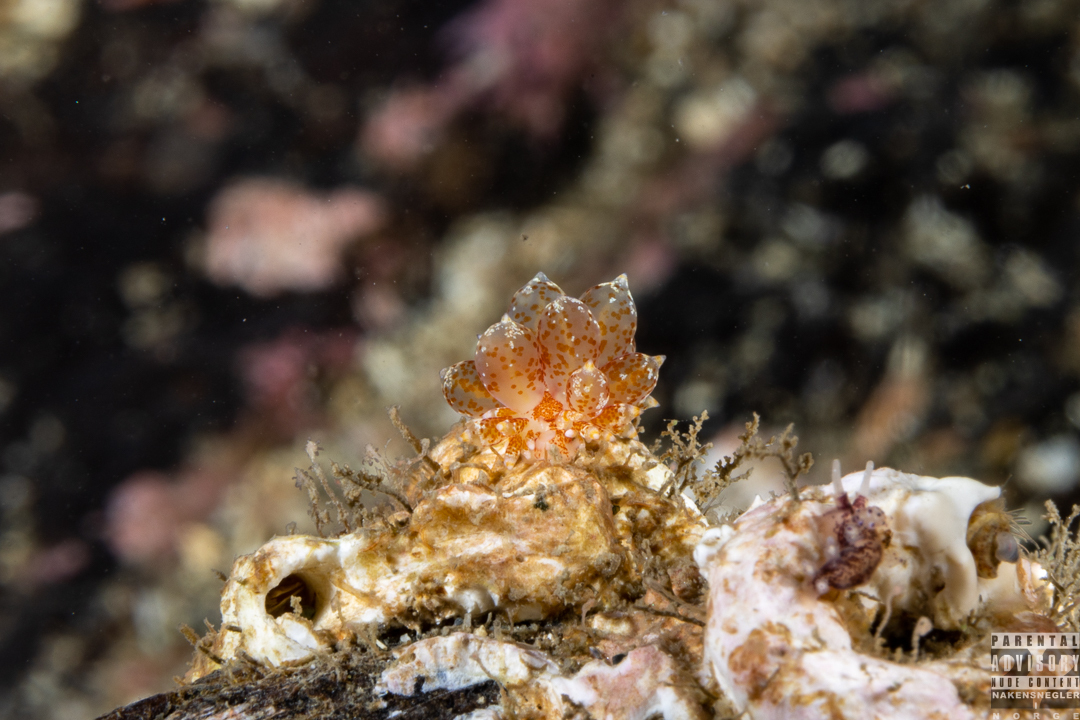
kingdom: Animalia
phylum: Mollusca
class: Gastropoda
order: Nudibranchia
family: Eubranchidae
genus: Amphorina
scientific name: Amphorina pallida
